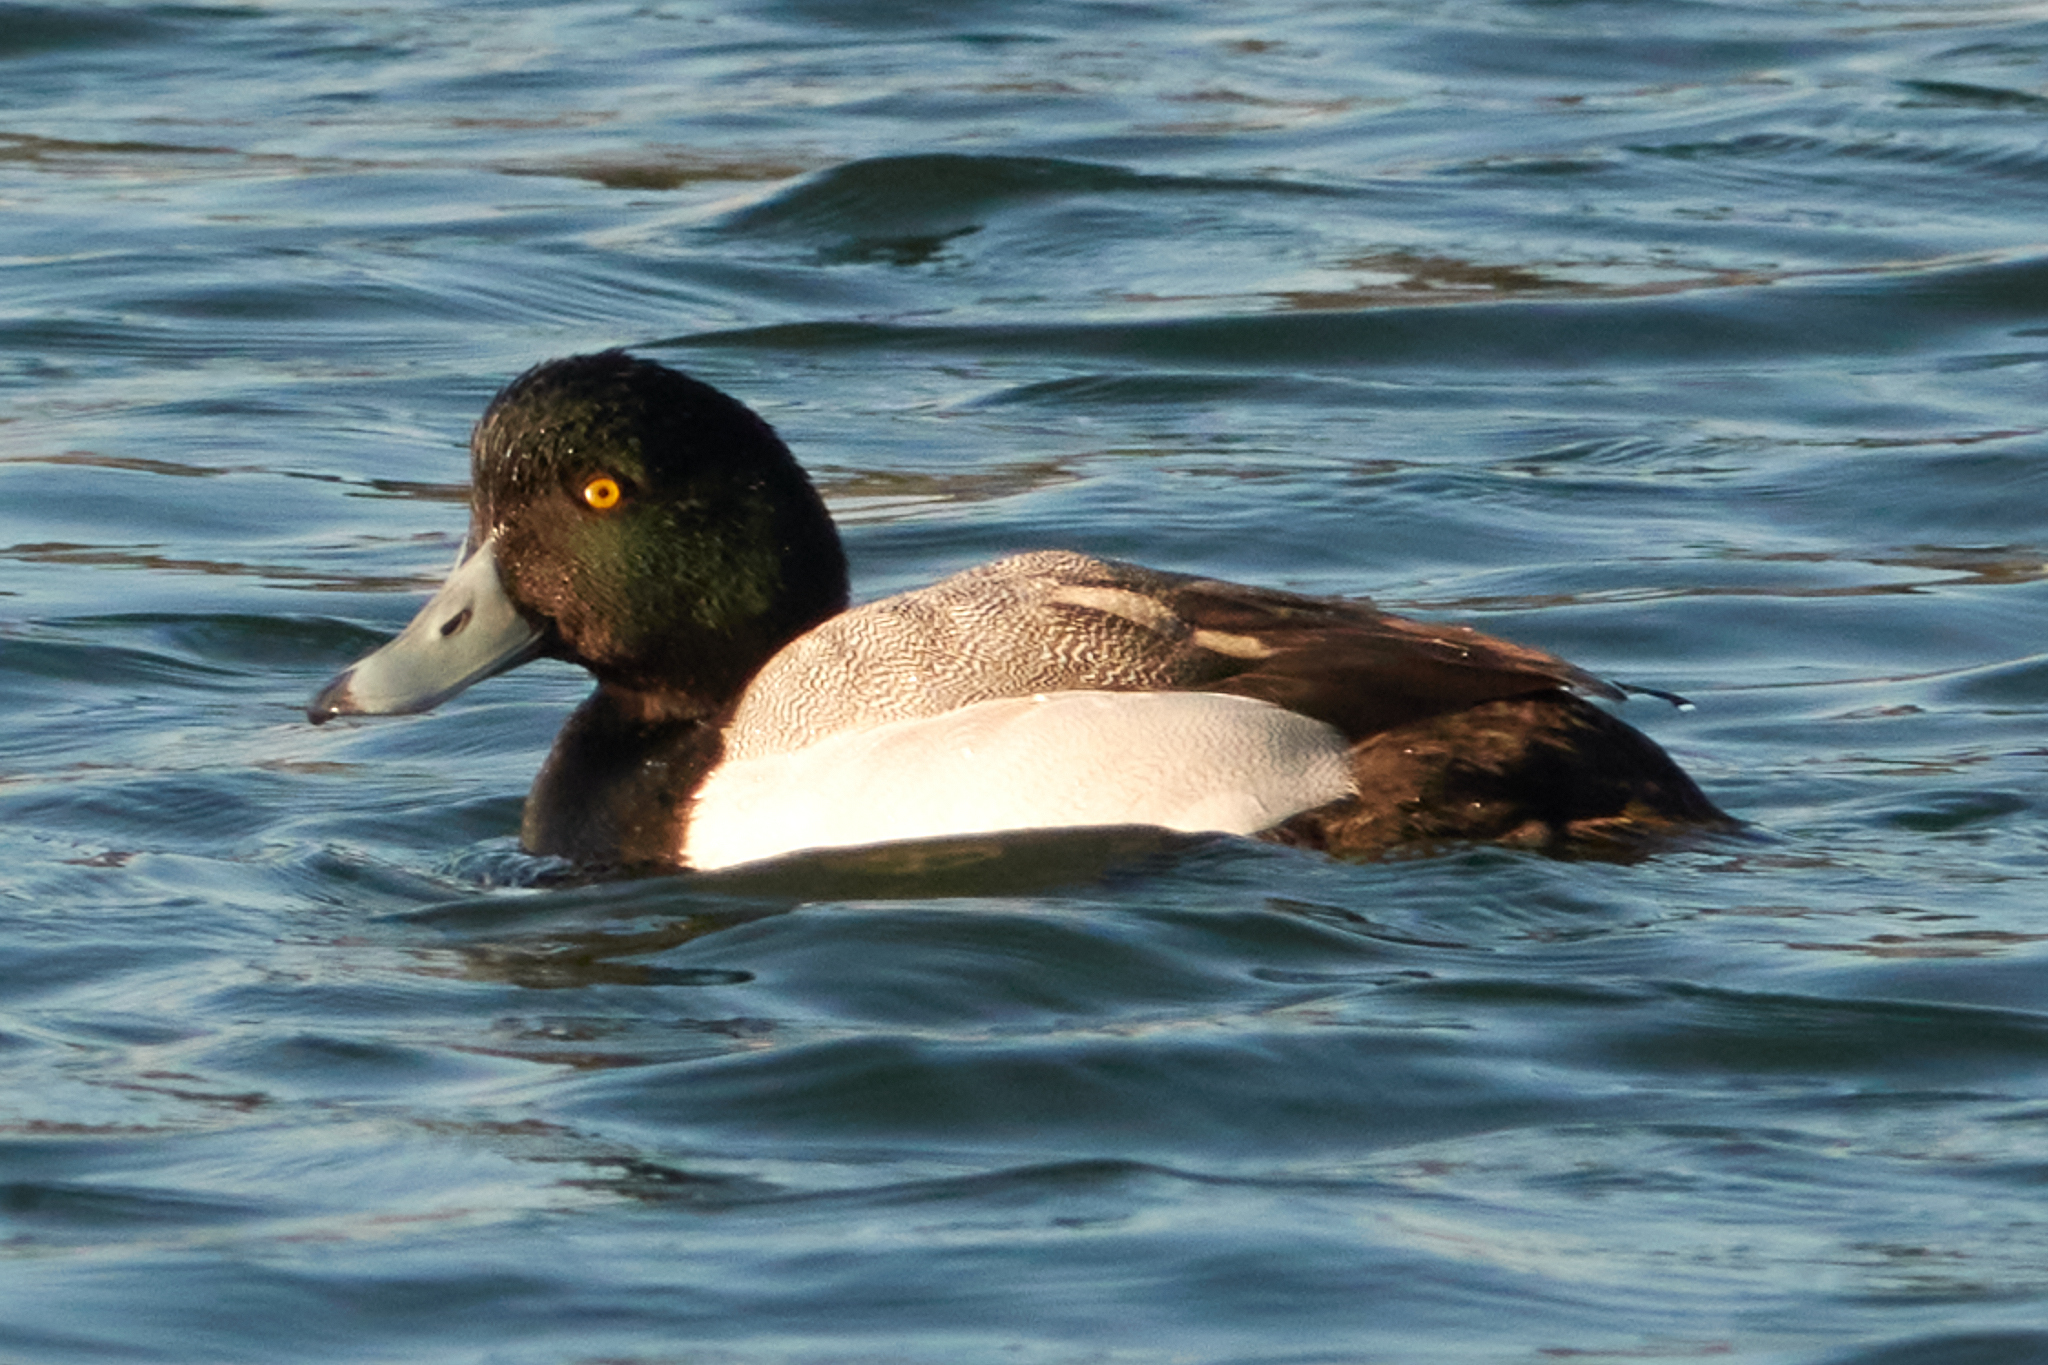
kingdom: Animalia
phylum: Chordata
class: Aves
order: Anseriformes
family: Anatidae
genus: Aythya
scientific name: Aythya marila
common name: Greater scaup
